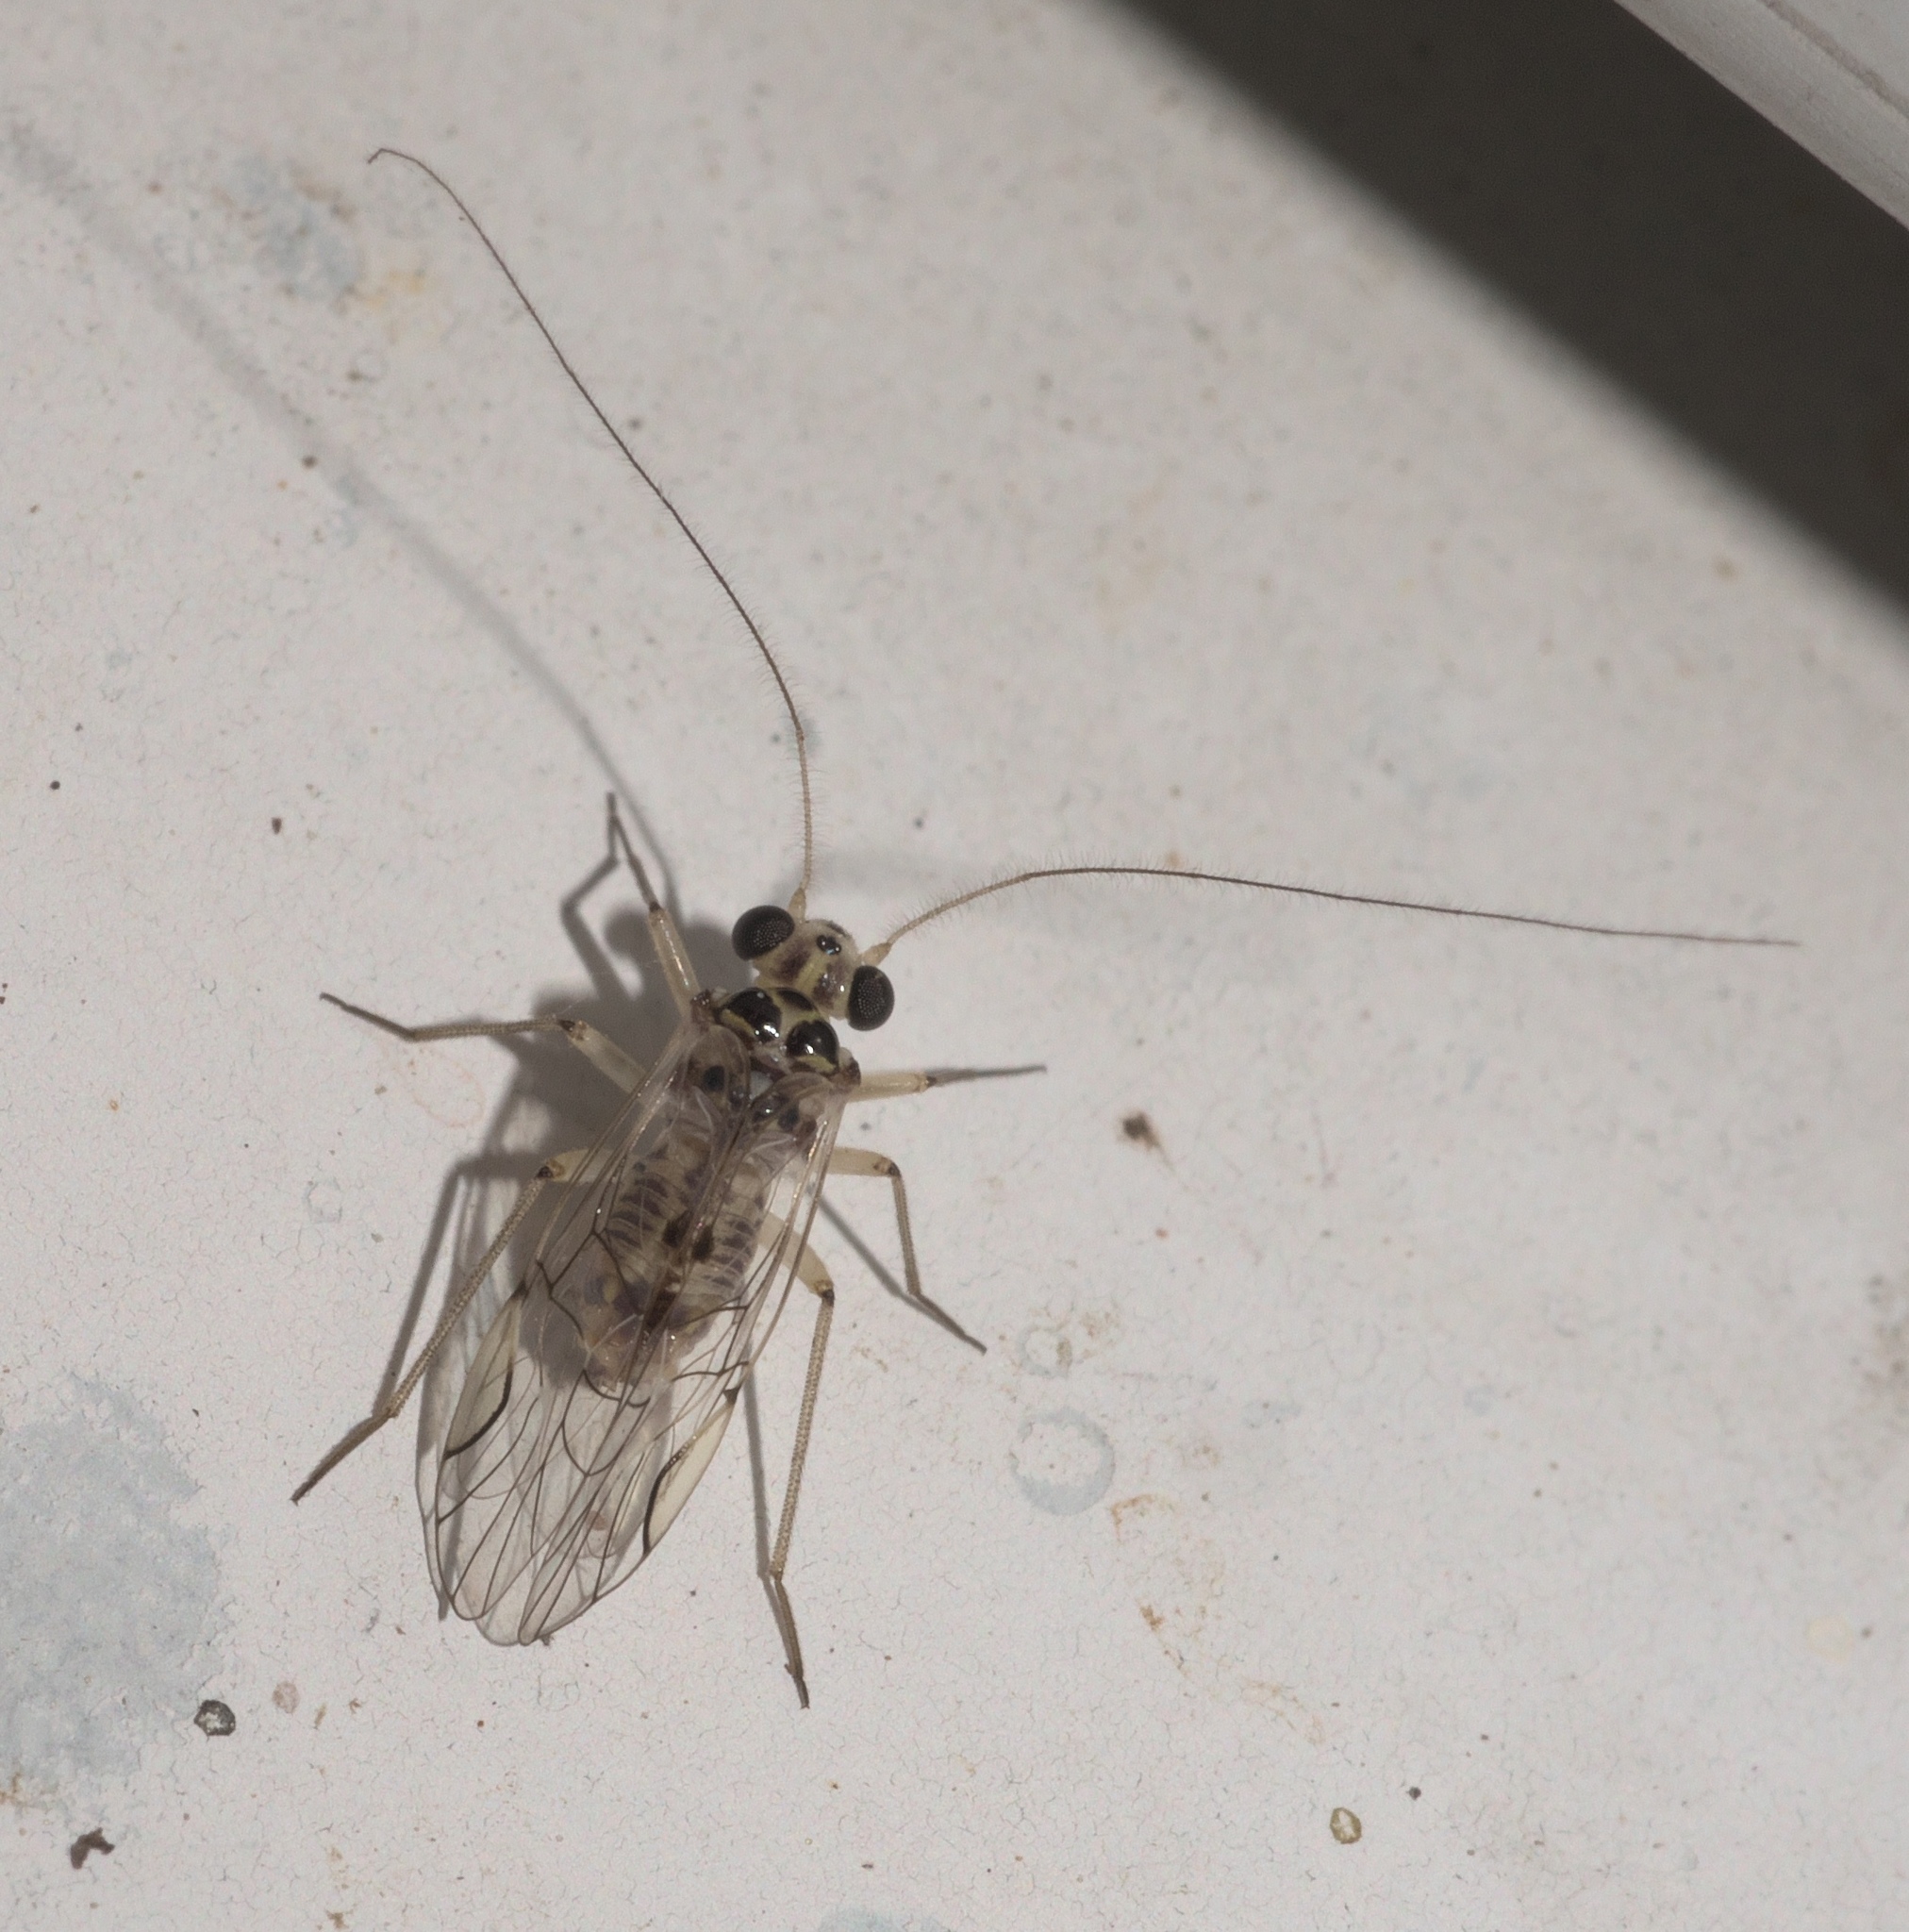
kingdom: Animalia
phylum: Arthropoda
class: Insecta
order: Psocodea
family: Psocidae
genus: Metylophorus
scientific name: Metylophorus purus
